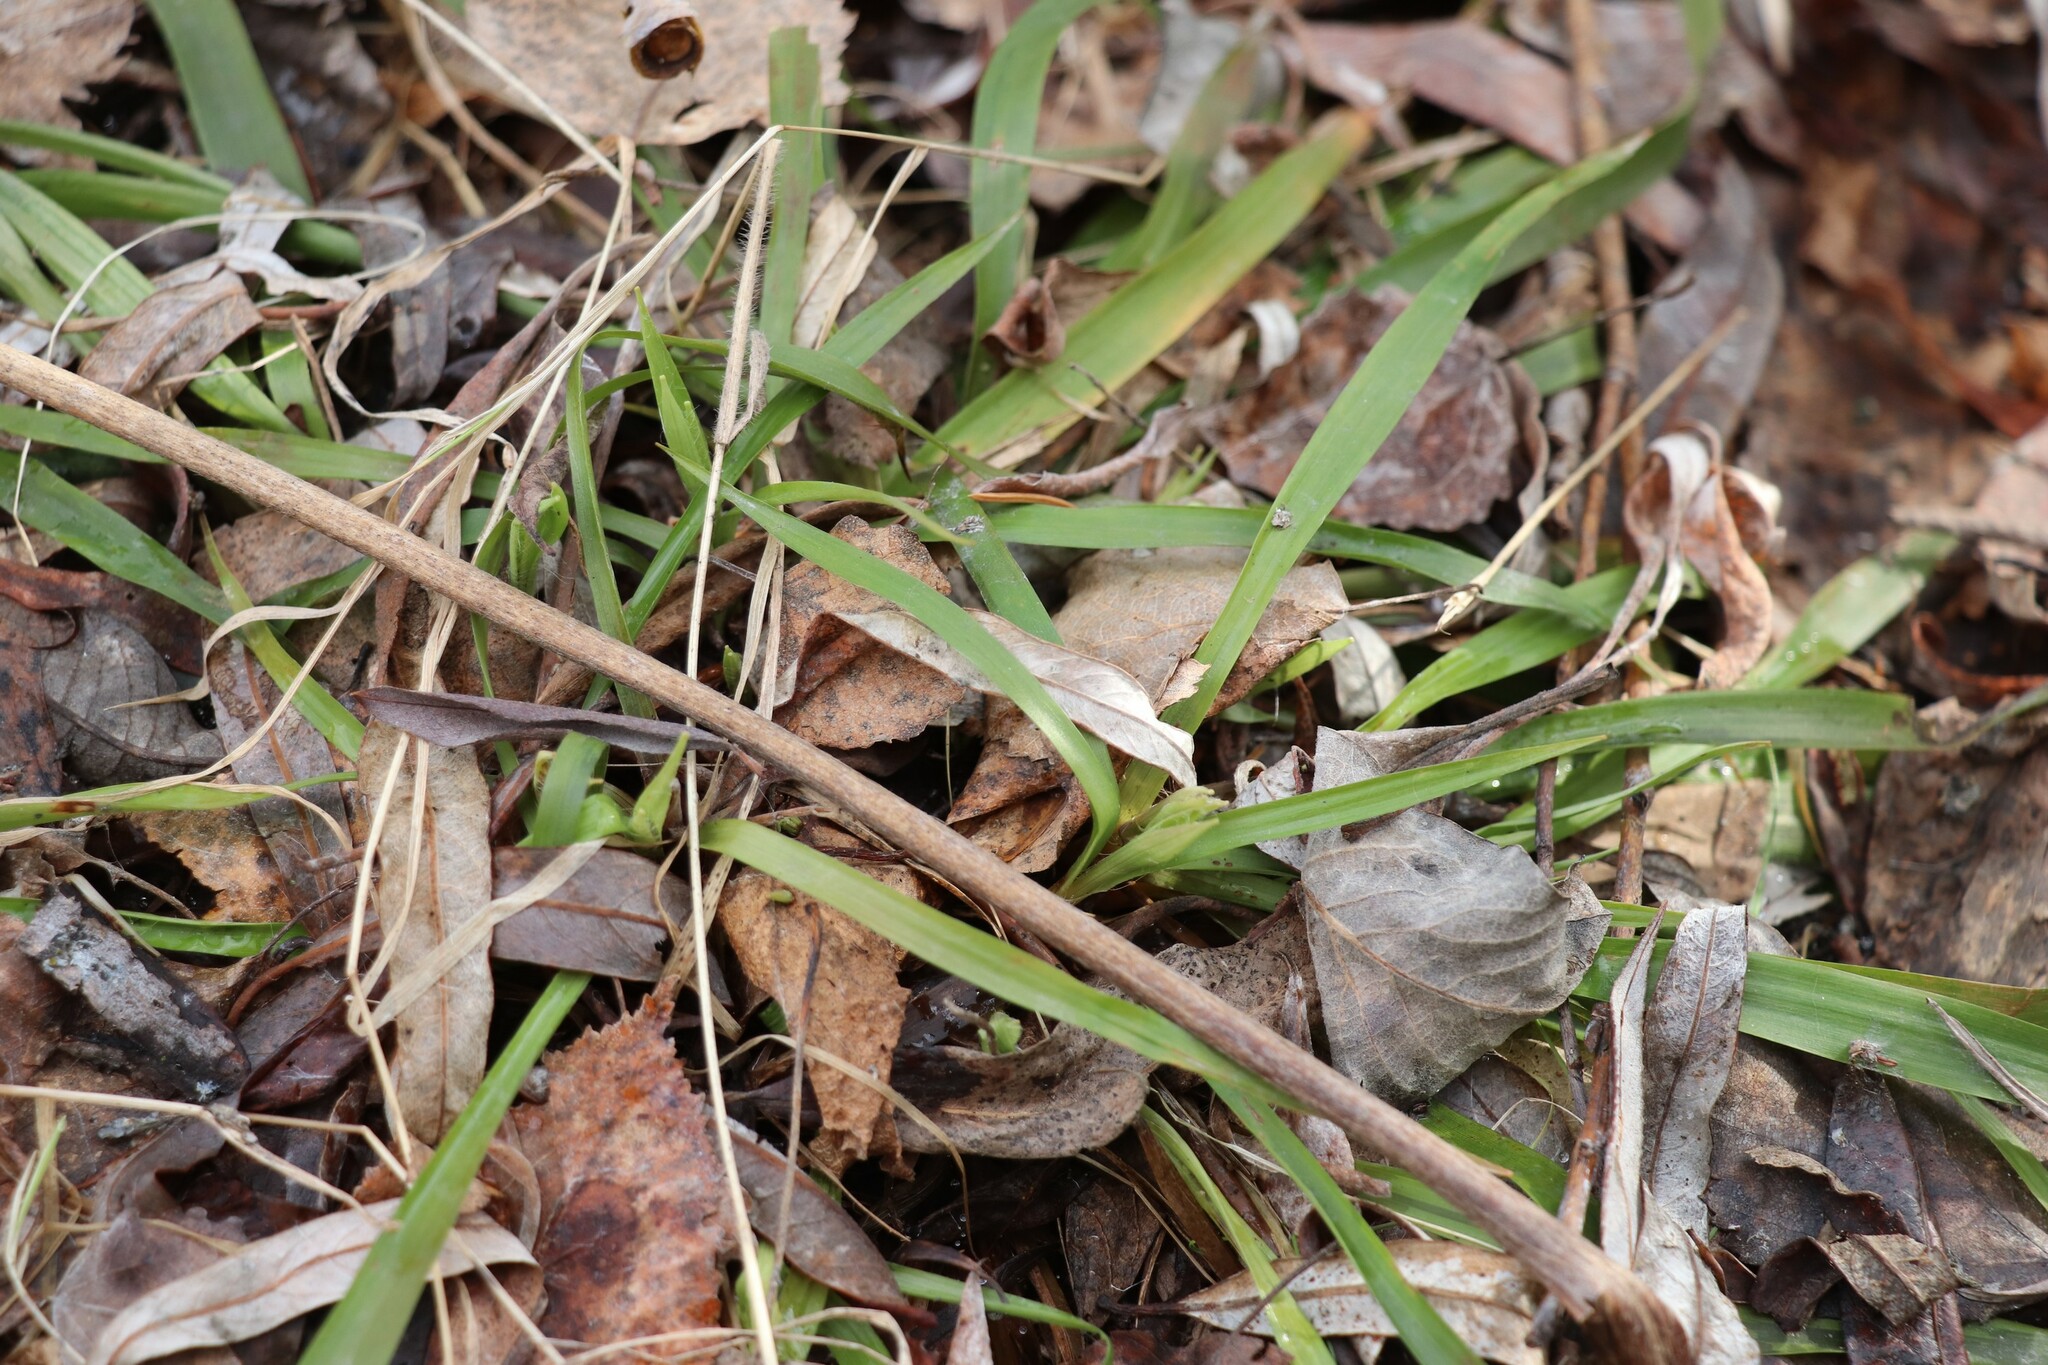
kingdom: Plantae
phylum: Tracheophyta
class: Liliopsida
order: Poales
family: Juncaceae
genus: Luzula
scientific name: Luzula pilosa
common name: Hairy wood-rush
